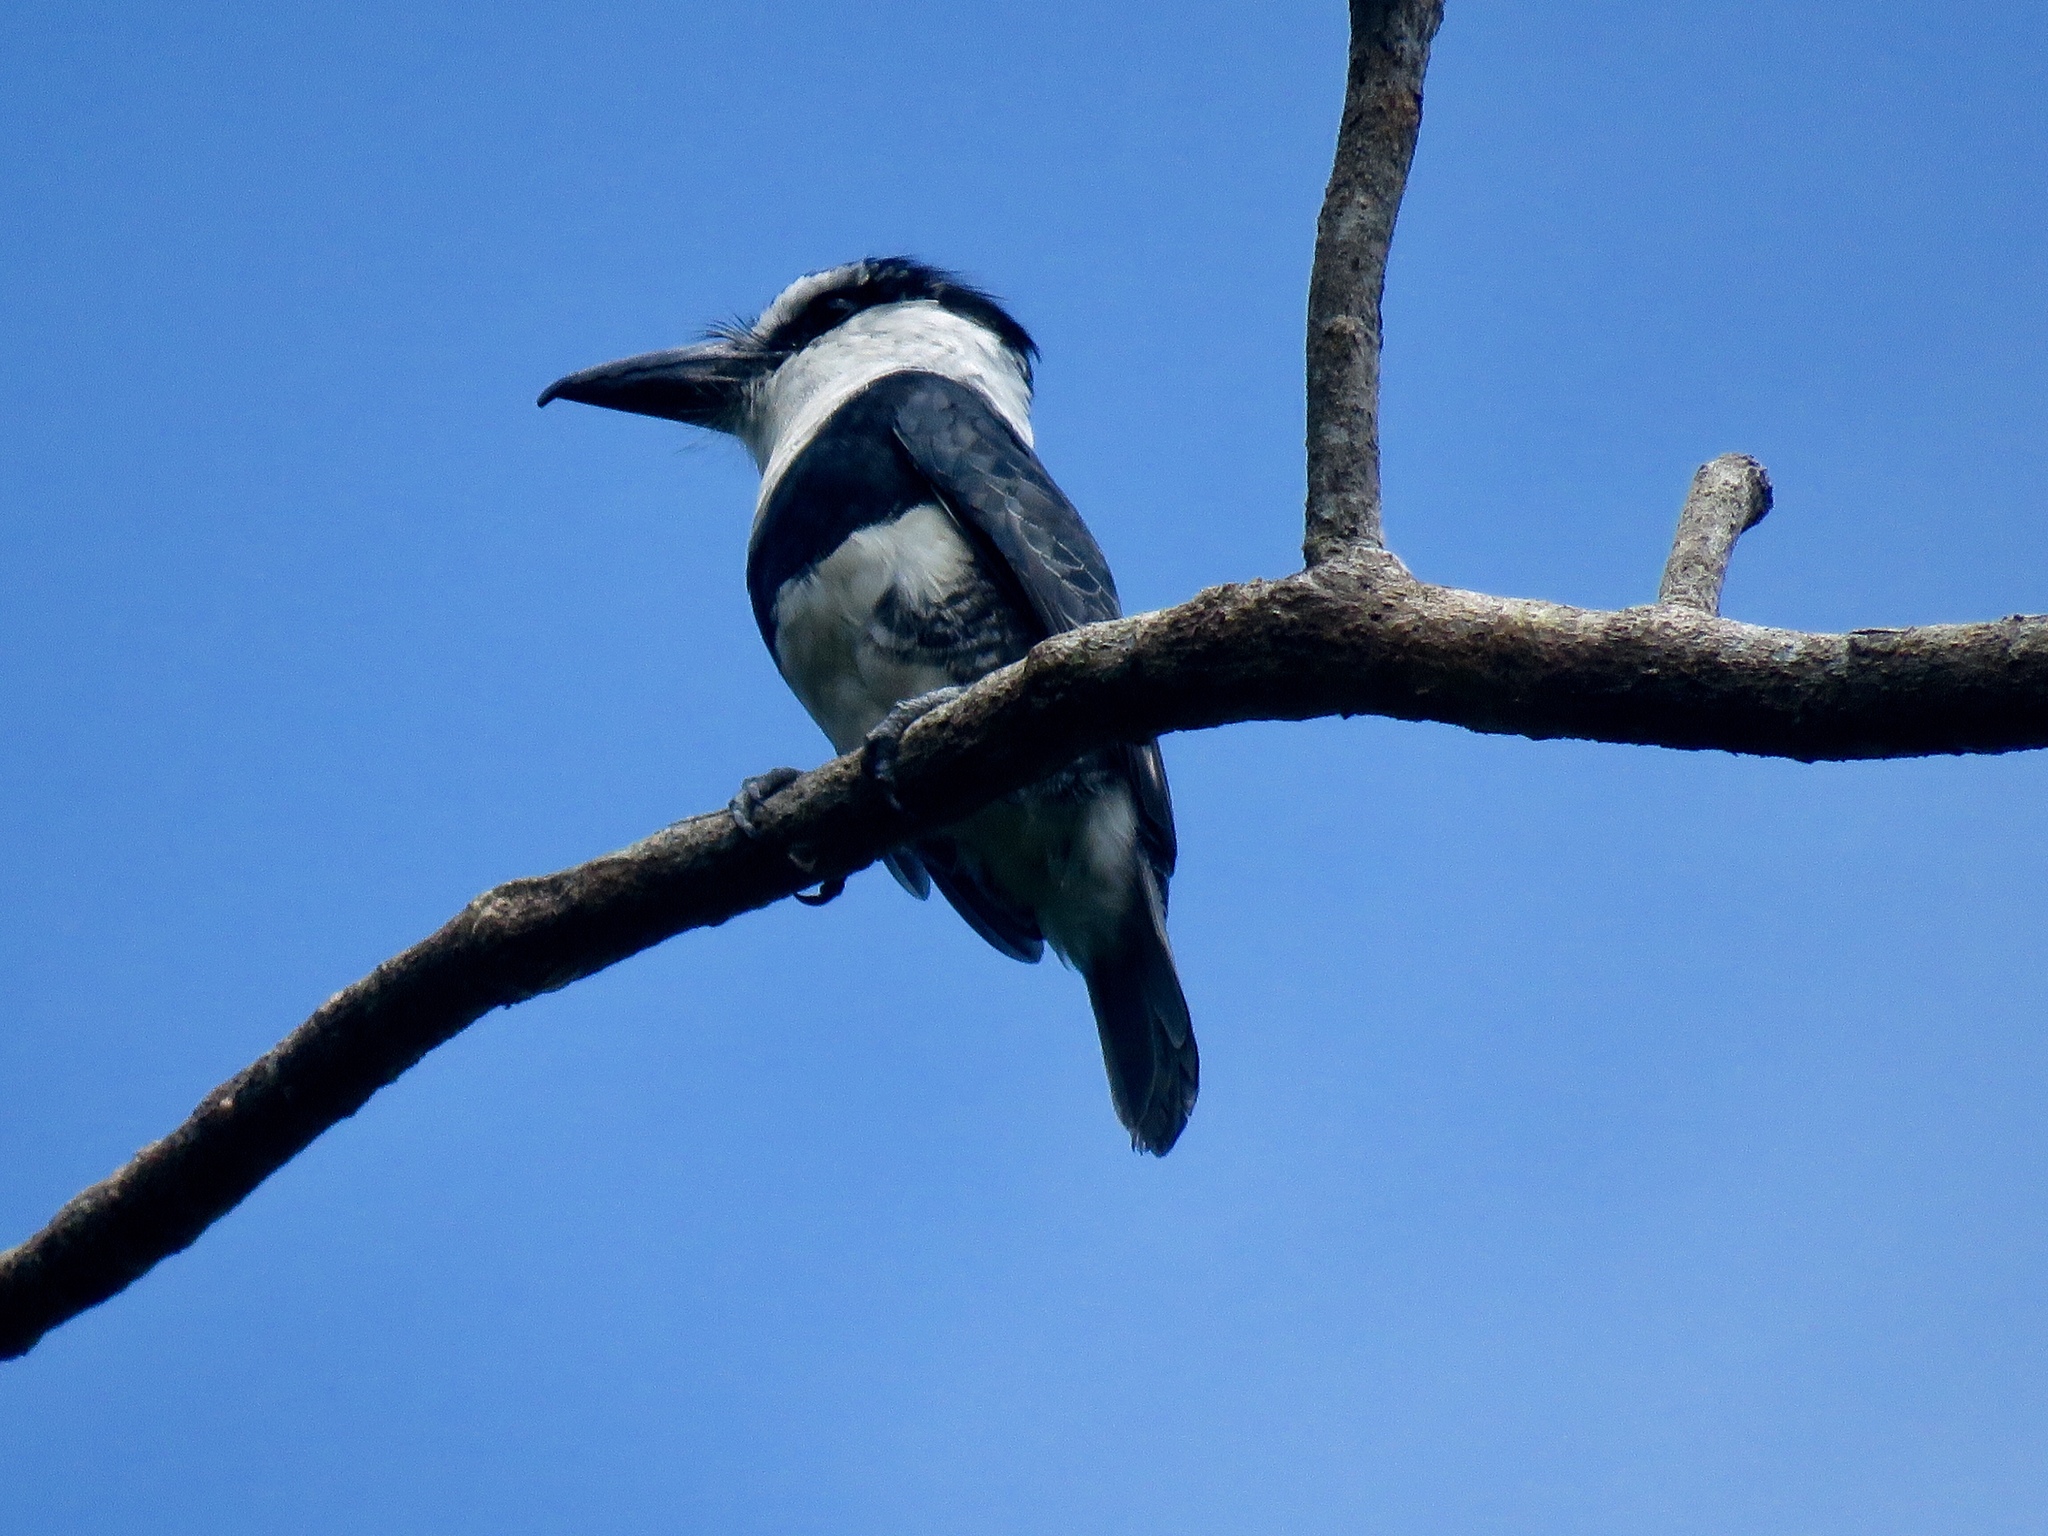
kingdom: Animalia
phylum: Chordata
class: Aves
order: Piciformes
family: Bucconidae
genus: Notharchus
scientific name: Notharchus hyperrhynchus
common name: White-necked puffbird
